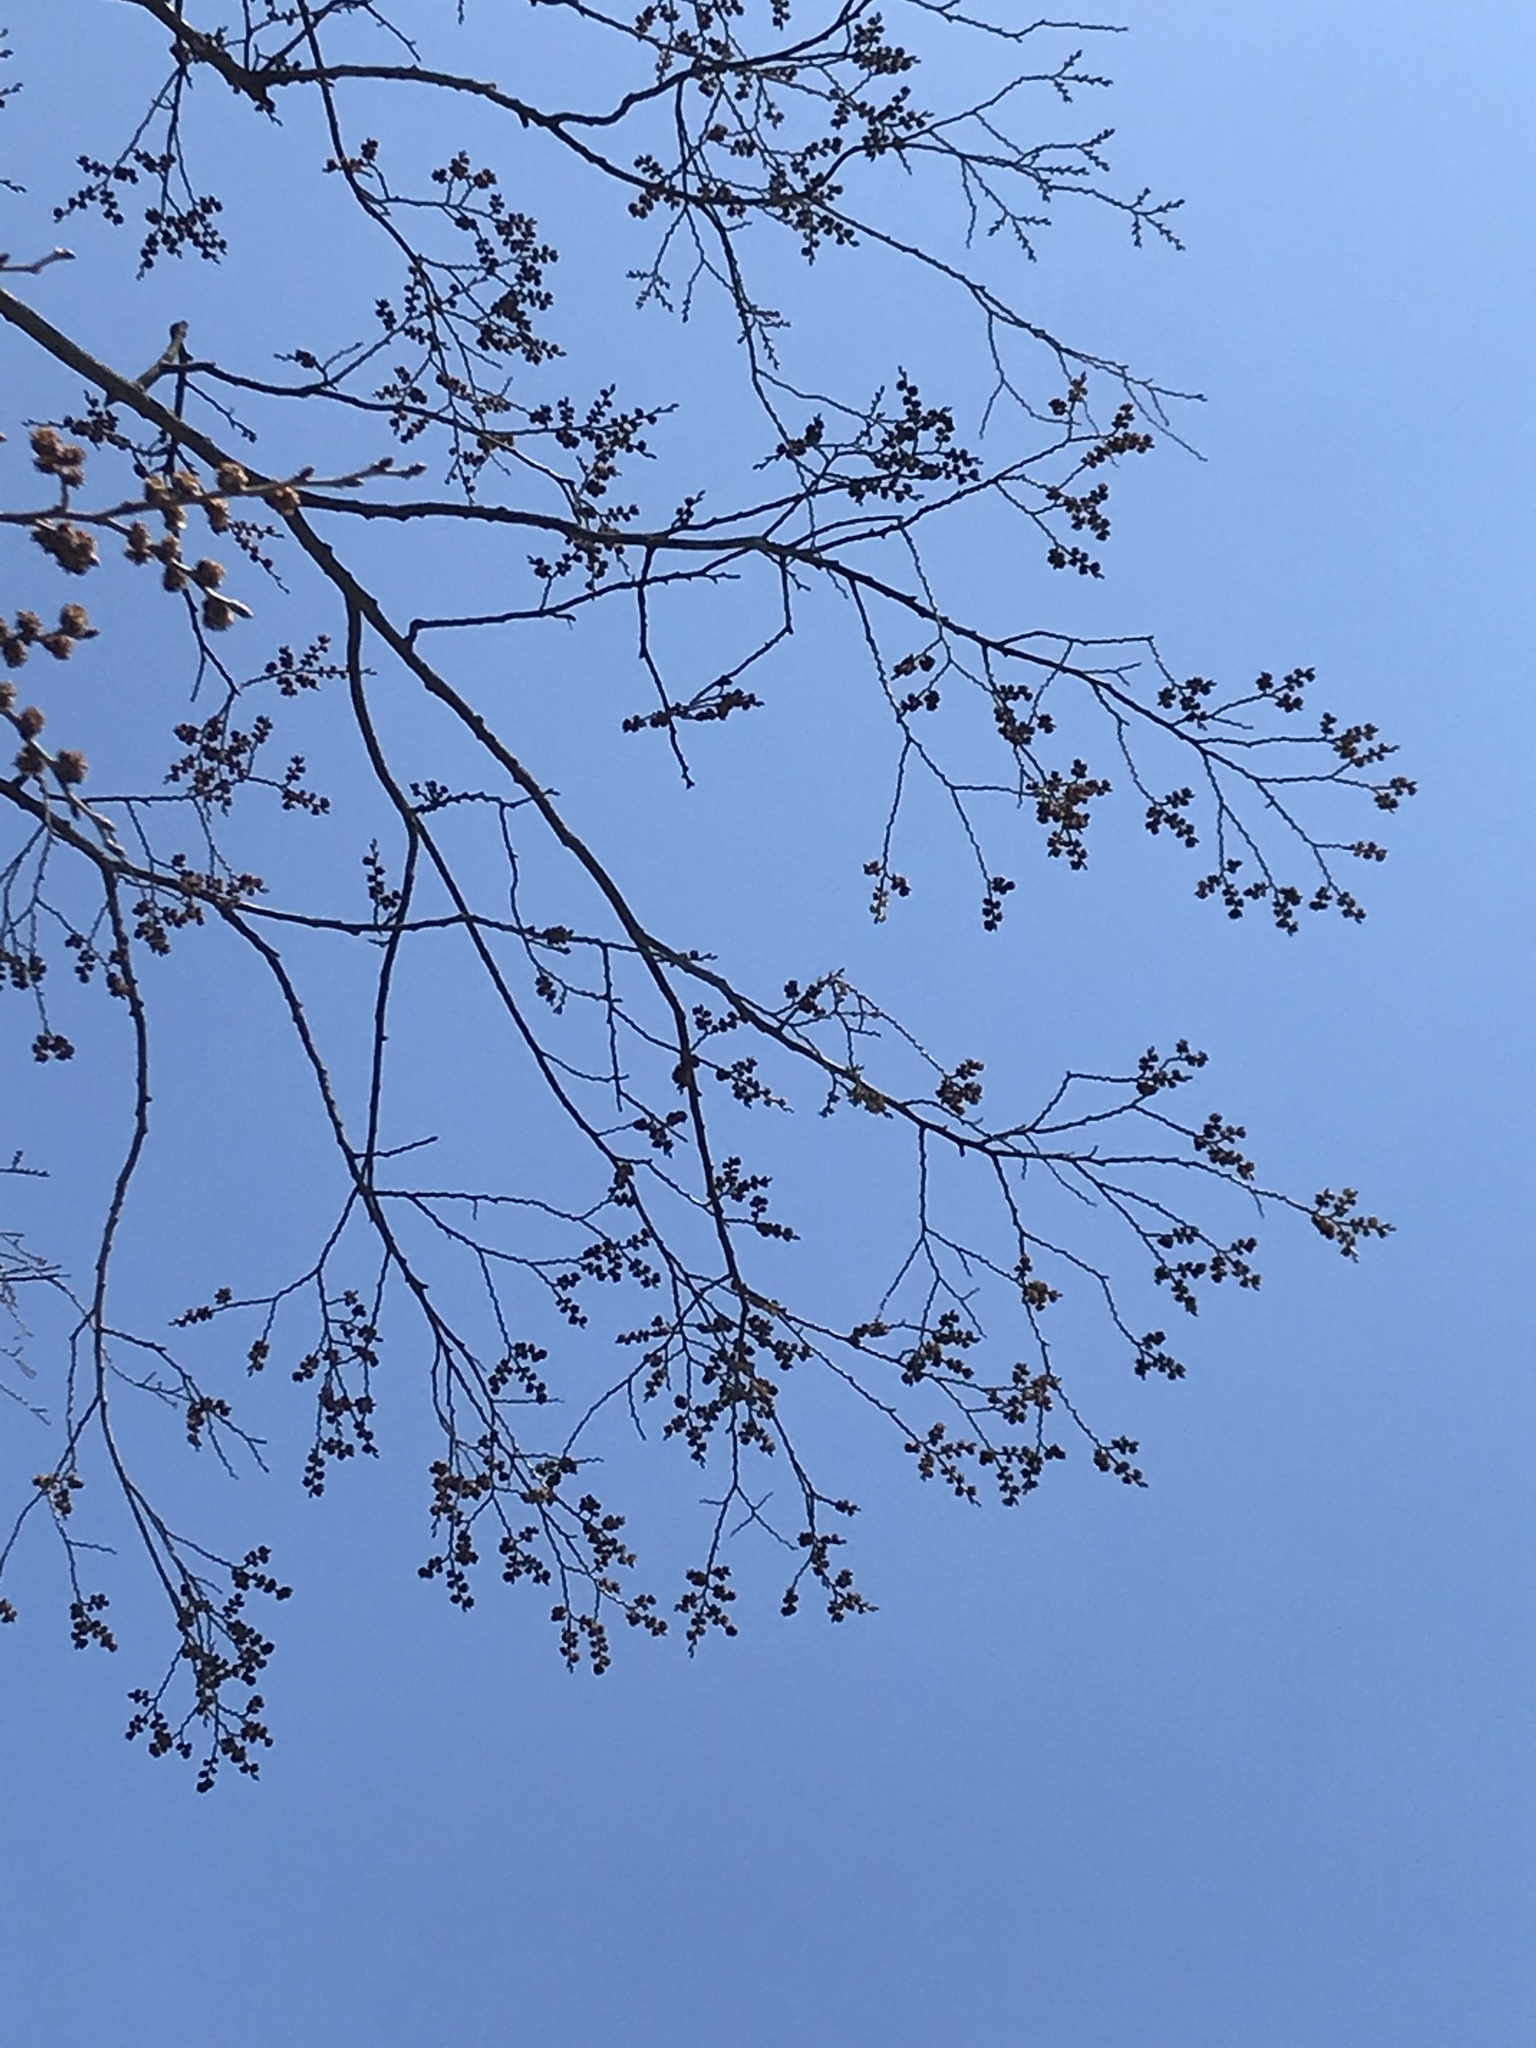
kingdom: Plantae
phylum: Tracheophyta
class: Magnoliopsida
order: Rosales
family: Ulmaceae
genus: Ulmus
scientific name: Ulmus rubra
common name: Slippery elm
